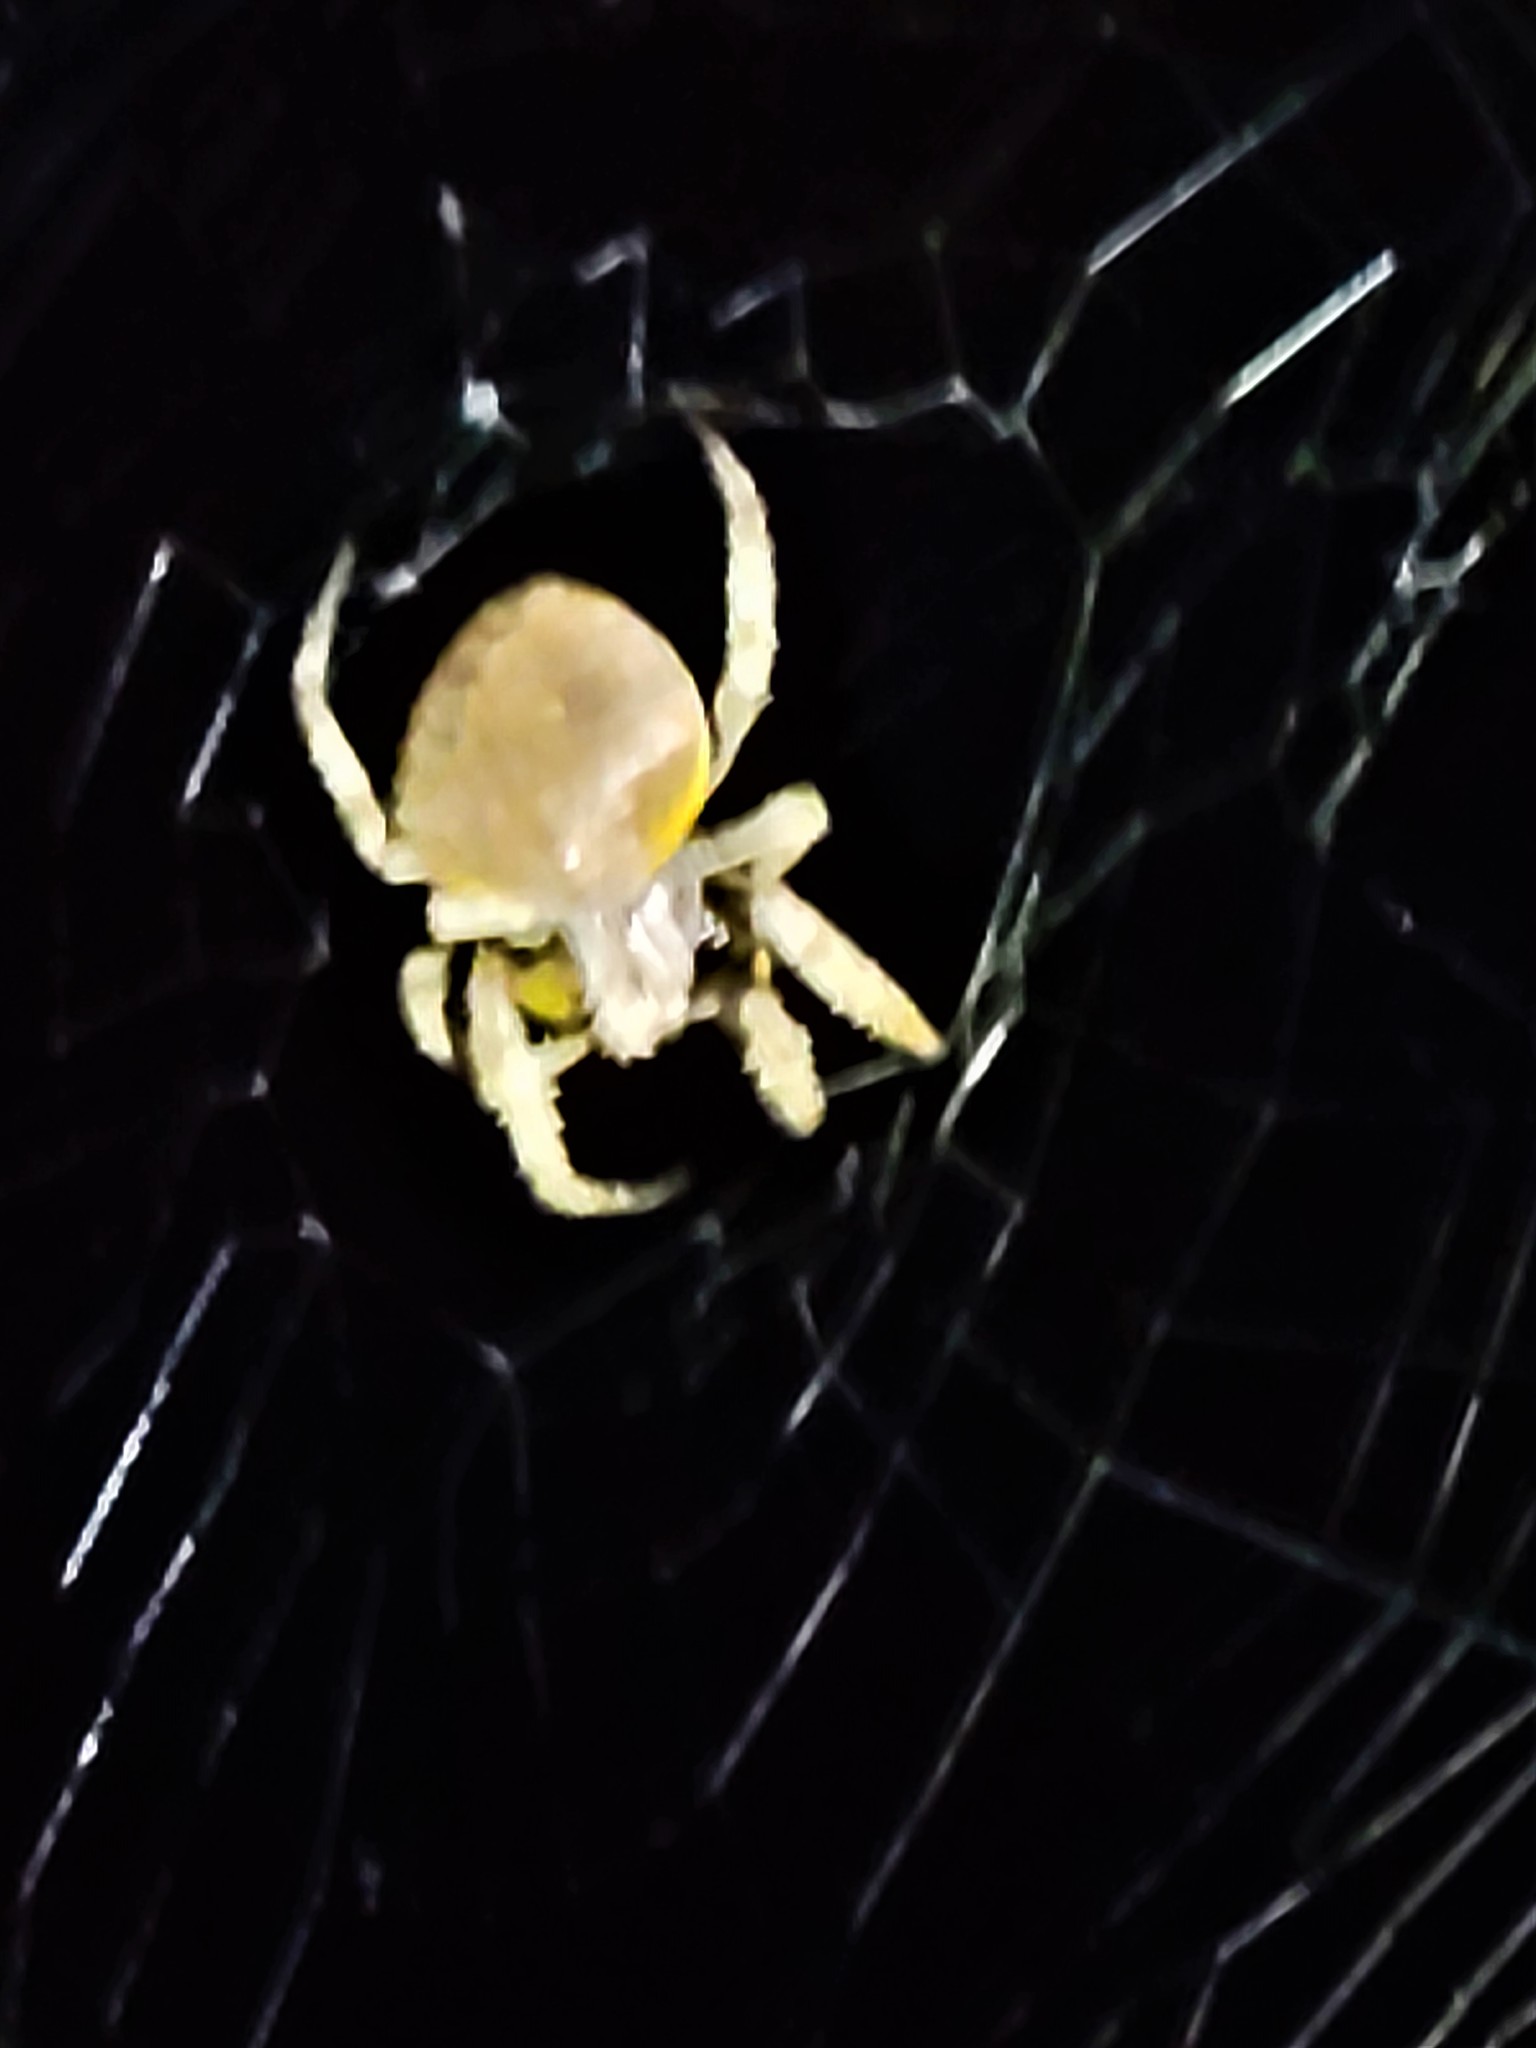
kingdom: Animalia
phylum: Arthropoda
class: Arachnida
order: Araneae
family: Araneidae
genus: Eriophora
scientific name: Eriophora ravilla
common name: Orb weavers
